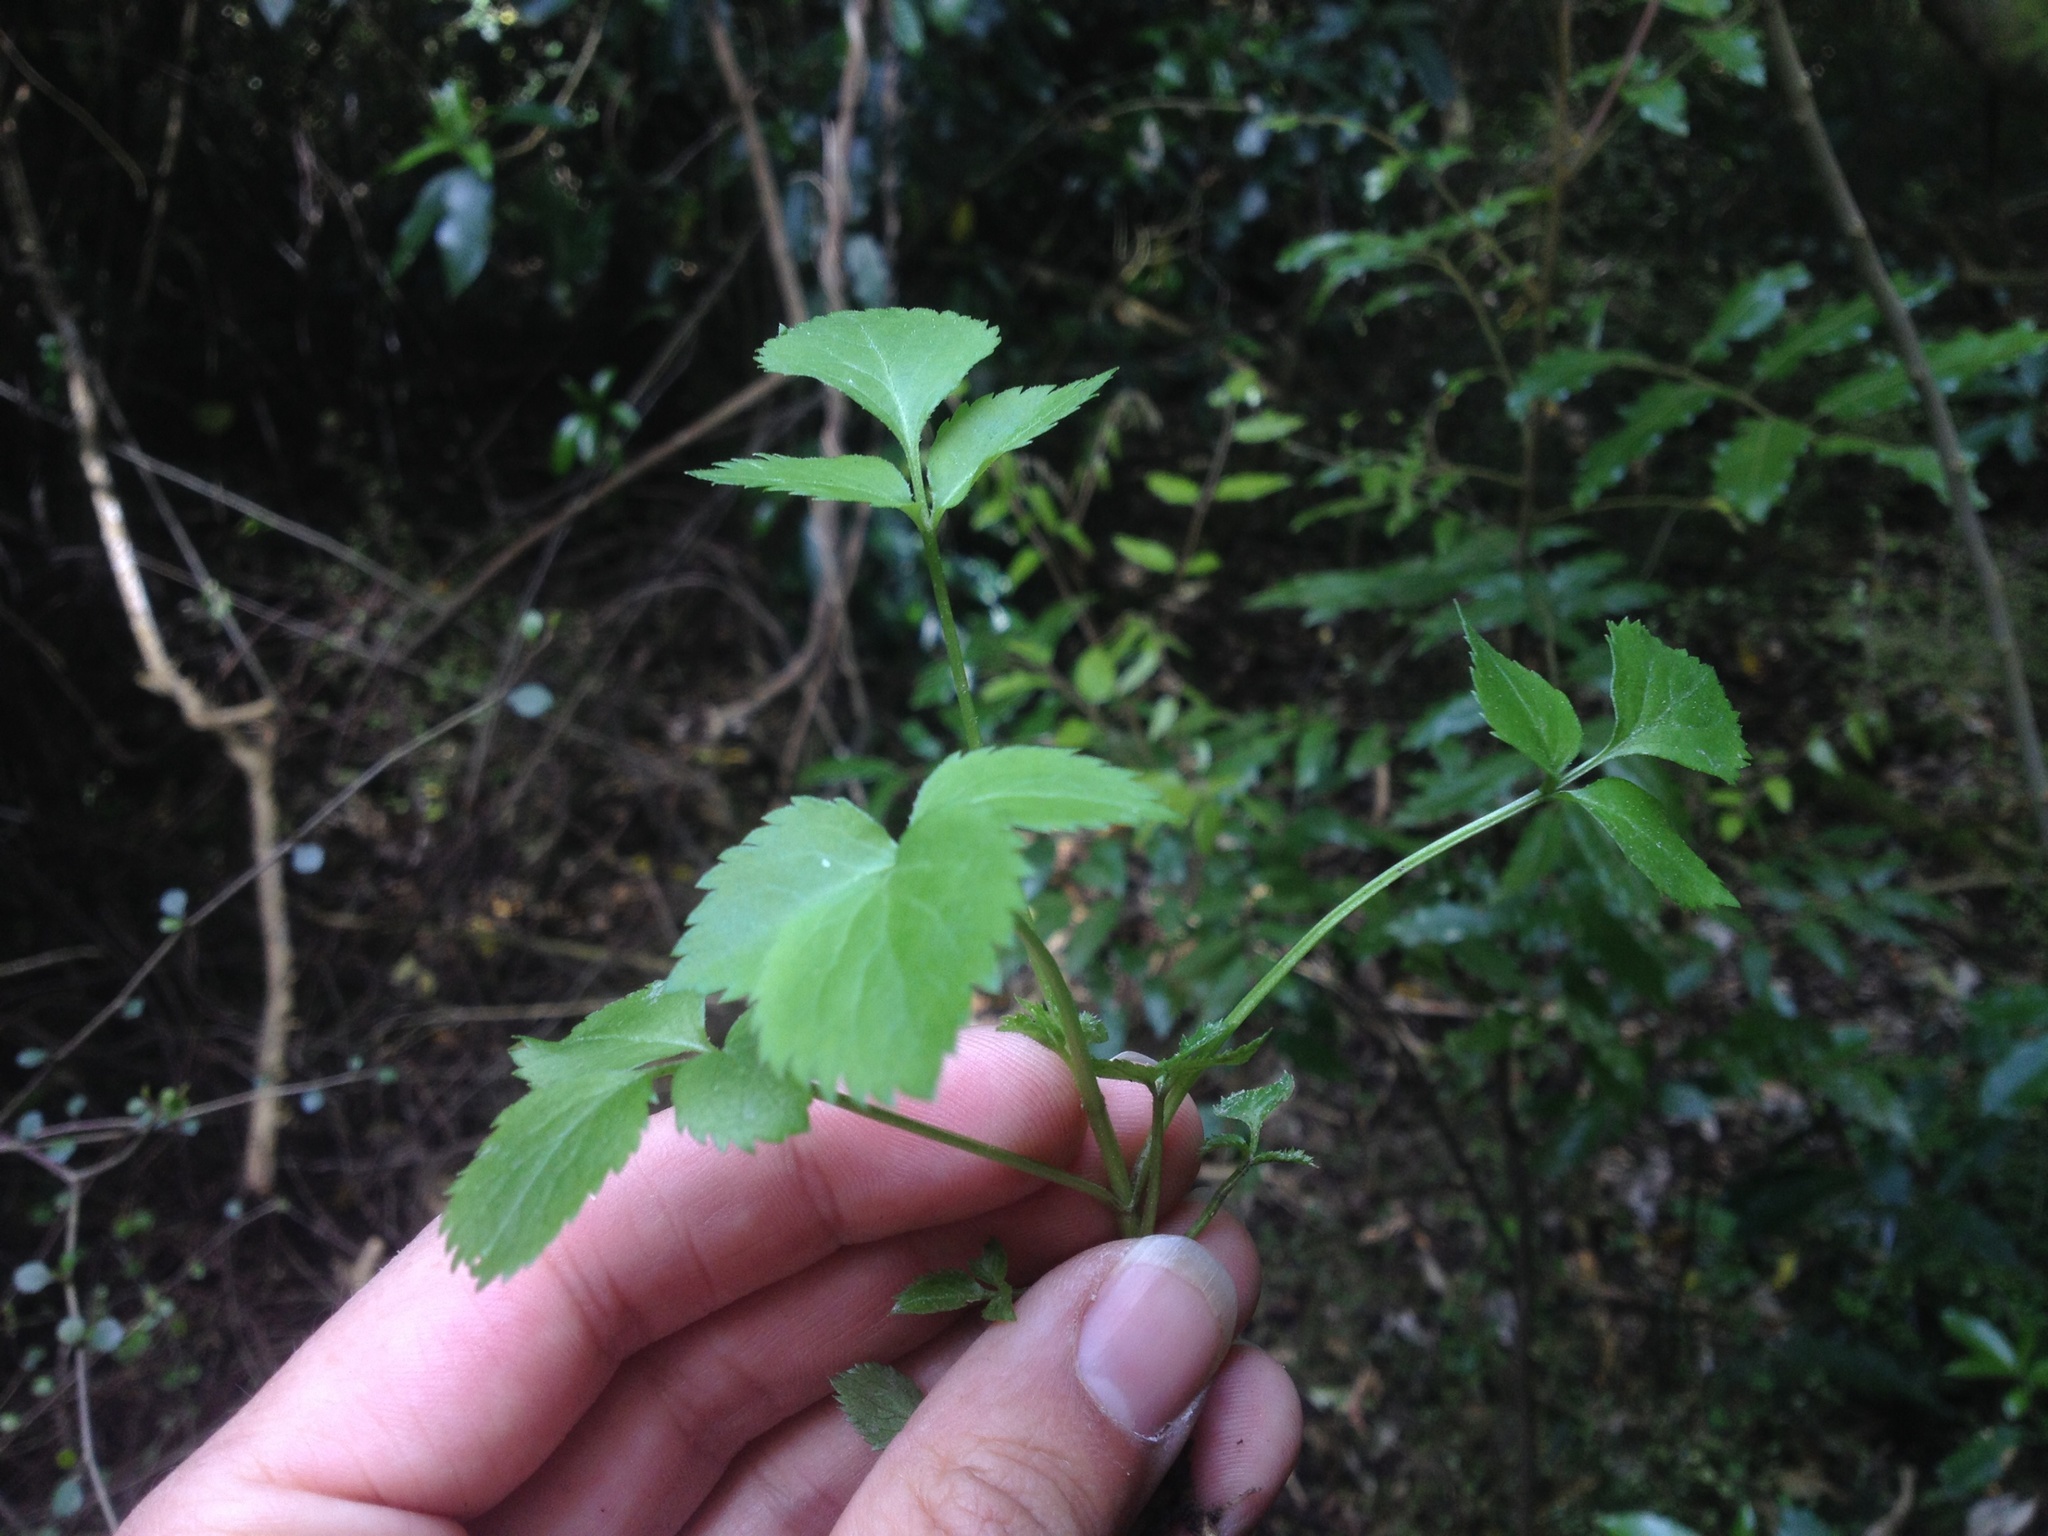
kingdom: Plantae
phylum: Tracheophyta
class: Magnoliopsida
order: Dipsacales
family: Viburnaceae
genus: Sambucus
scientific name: Sambucus nigra
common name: Elder
